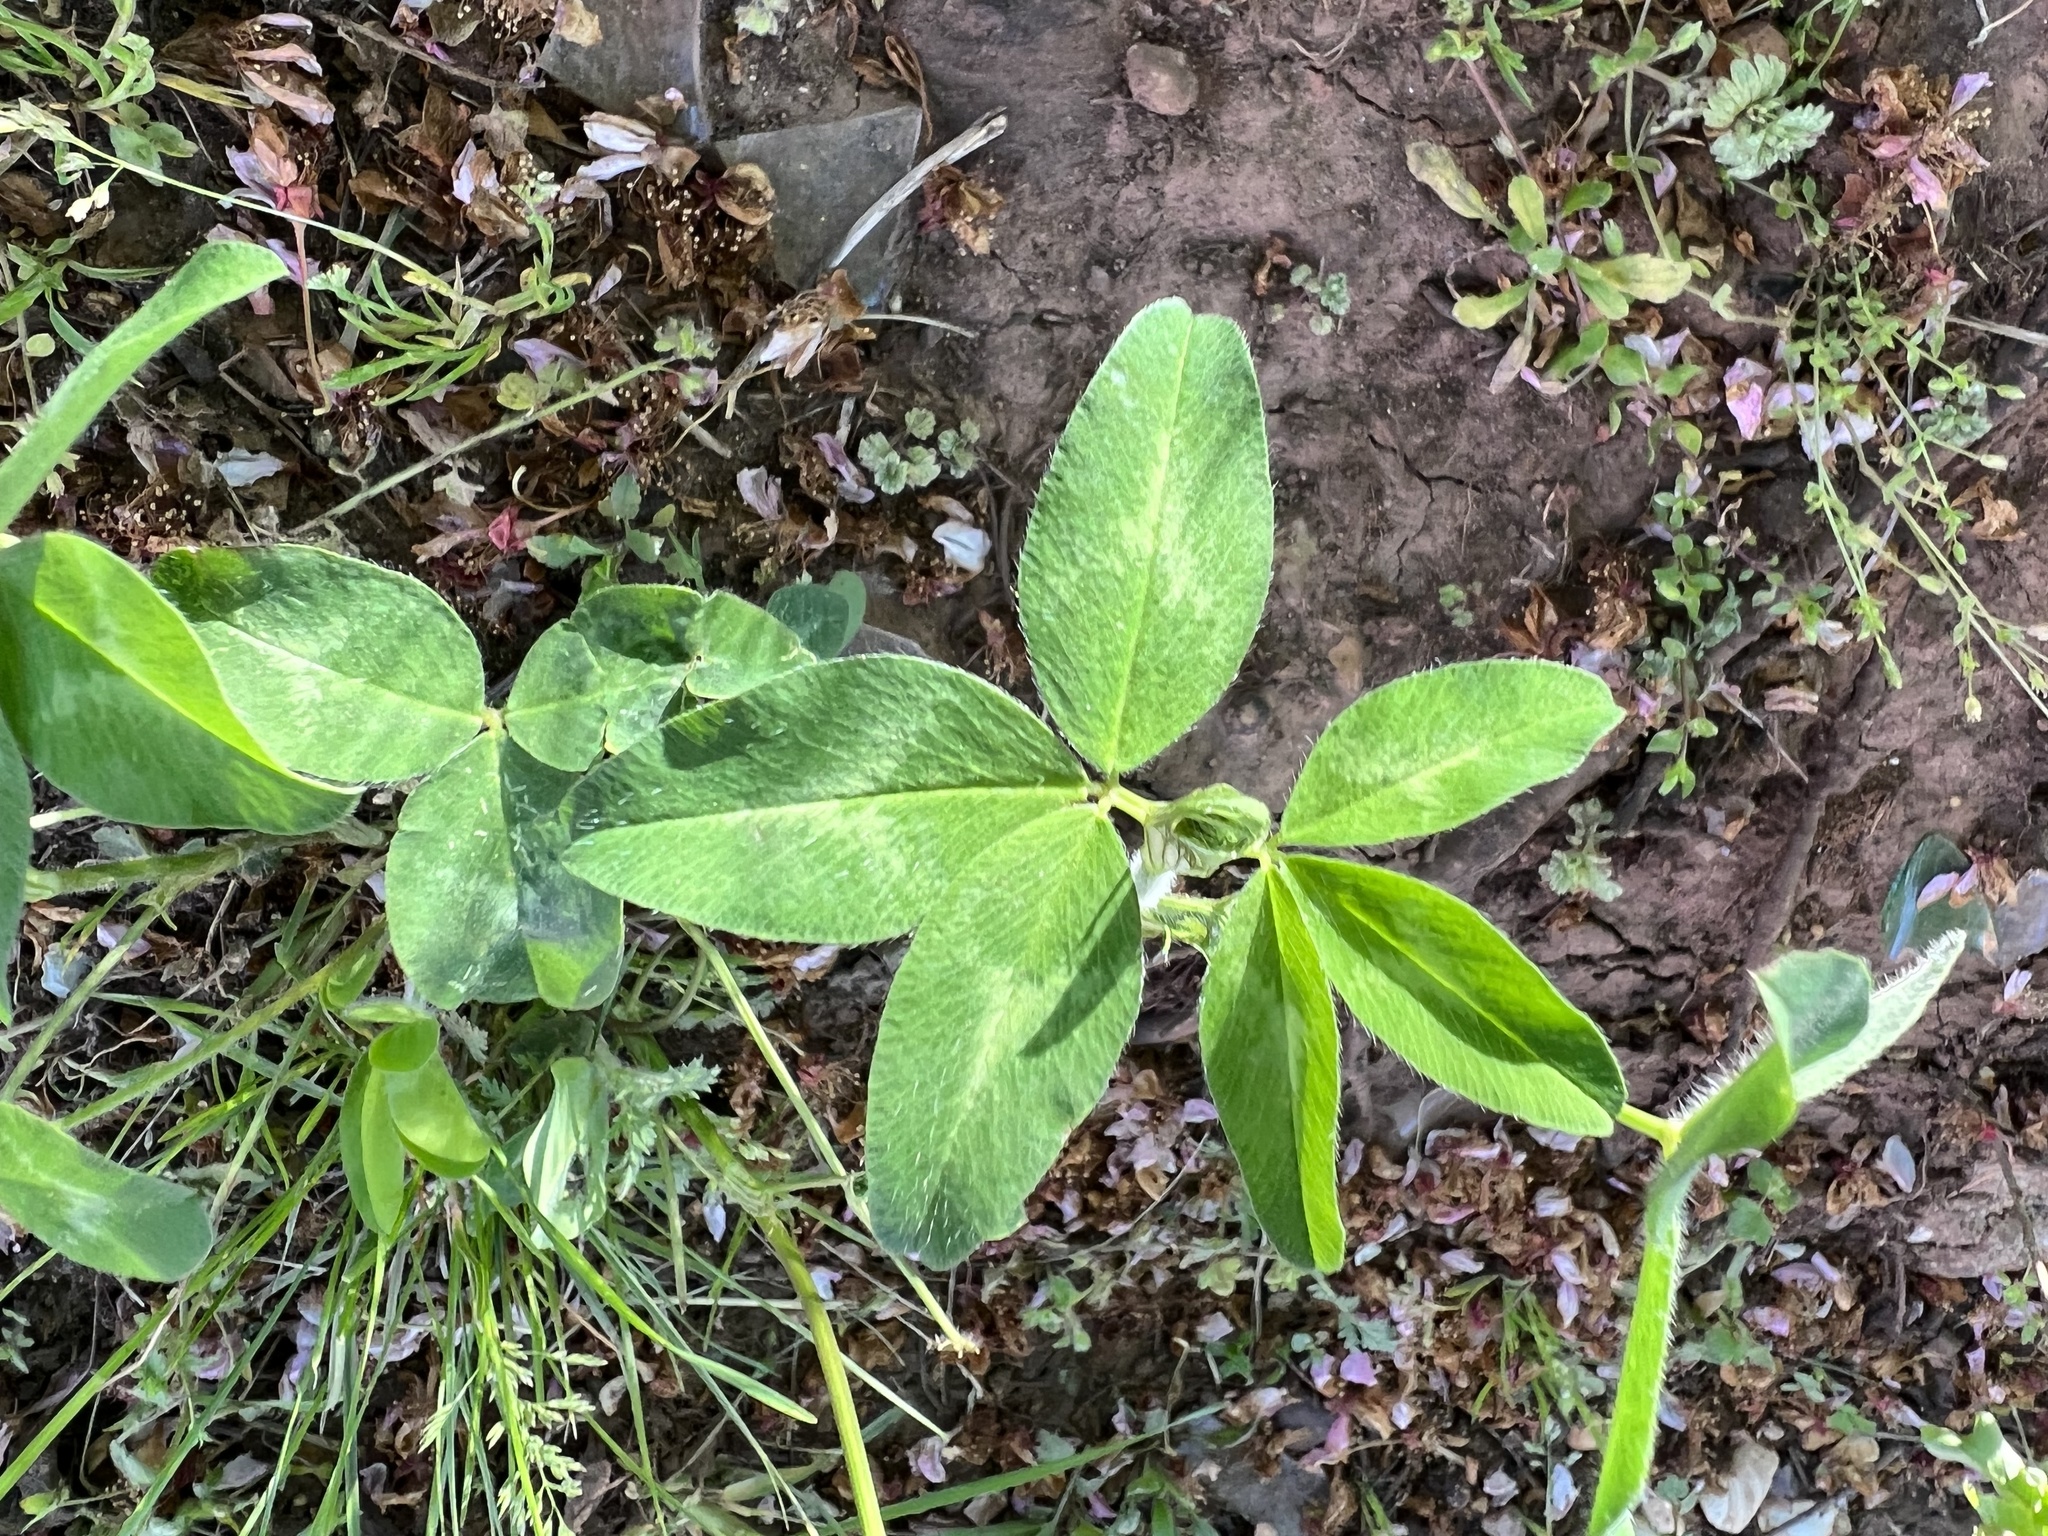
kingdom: Plantae
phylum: Tracheophyta
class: Magnoliopsida
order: Fabales
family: Fabaceae
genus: Trifolium
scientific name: Trifolium pratense
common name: Red clover
